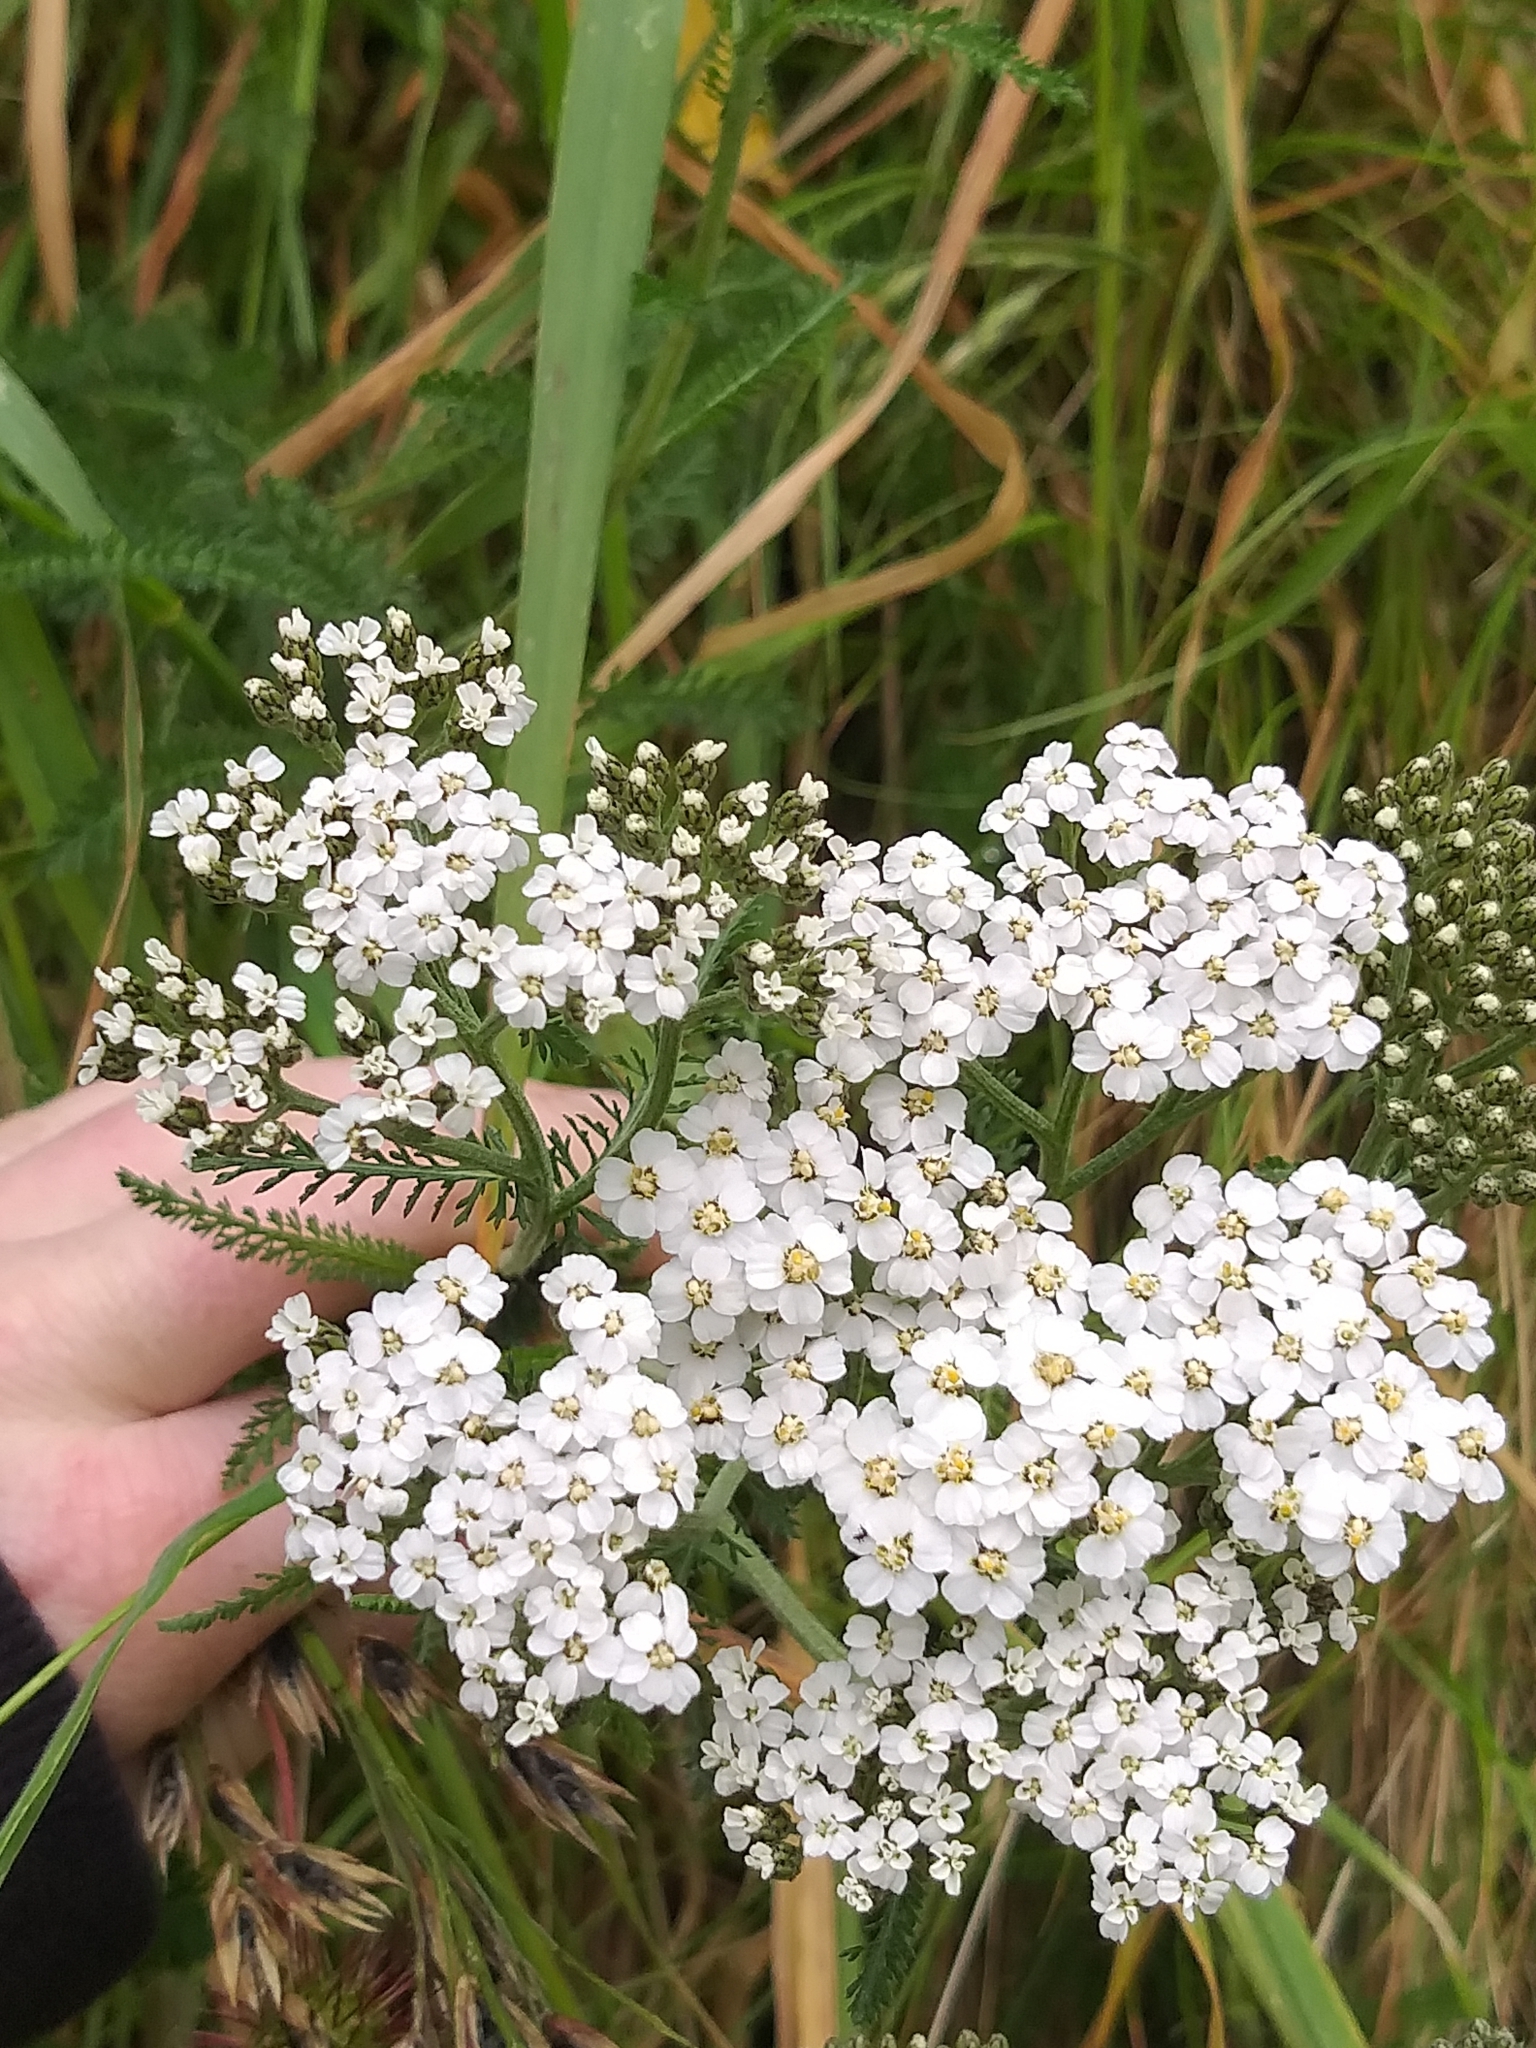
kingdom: Plantae
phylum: Tracheophyta
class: Magnoliopsida
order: Asterales
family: Asteraceae
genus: Achillea
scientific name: Achillea millefolium
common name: Yarrow
